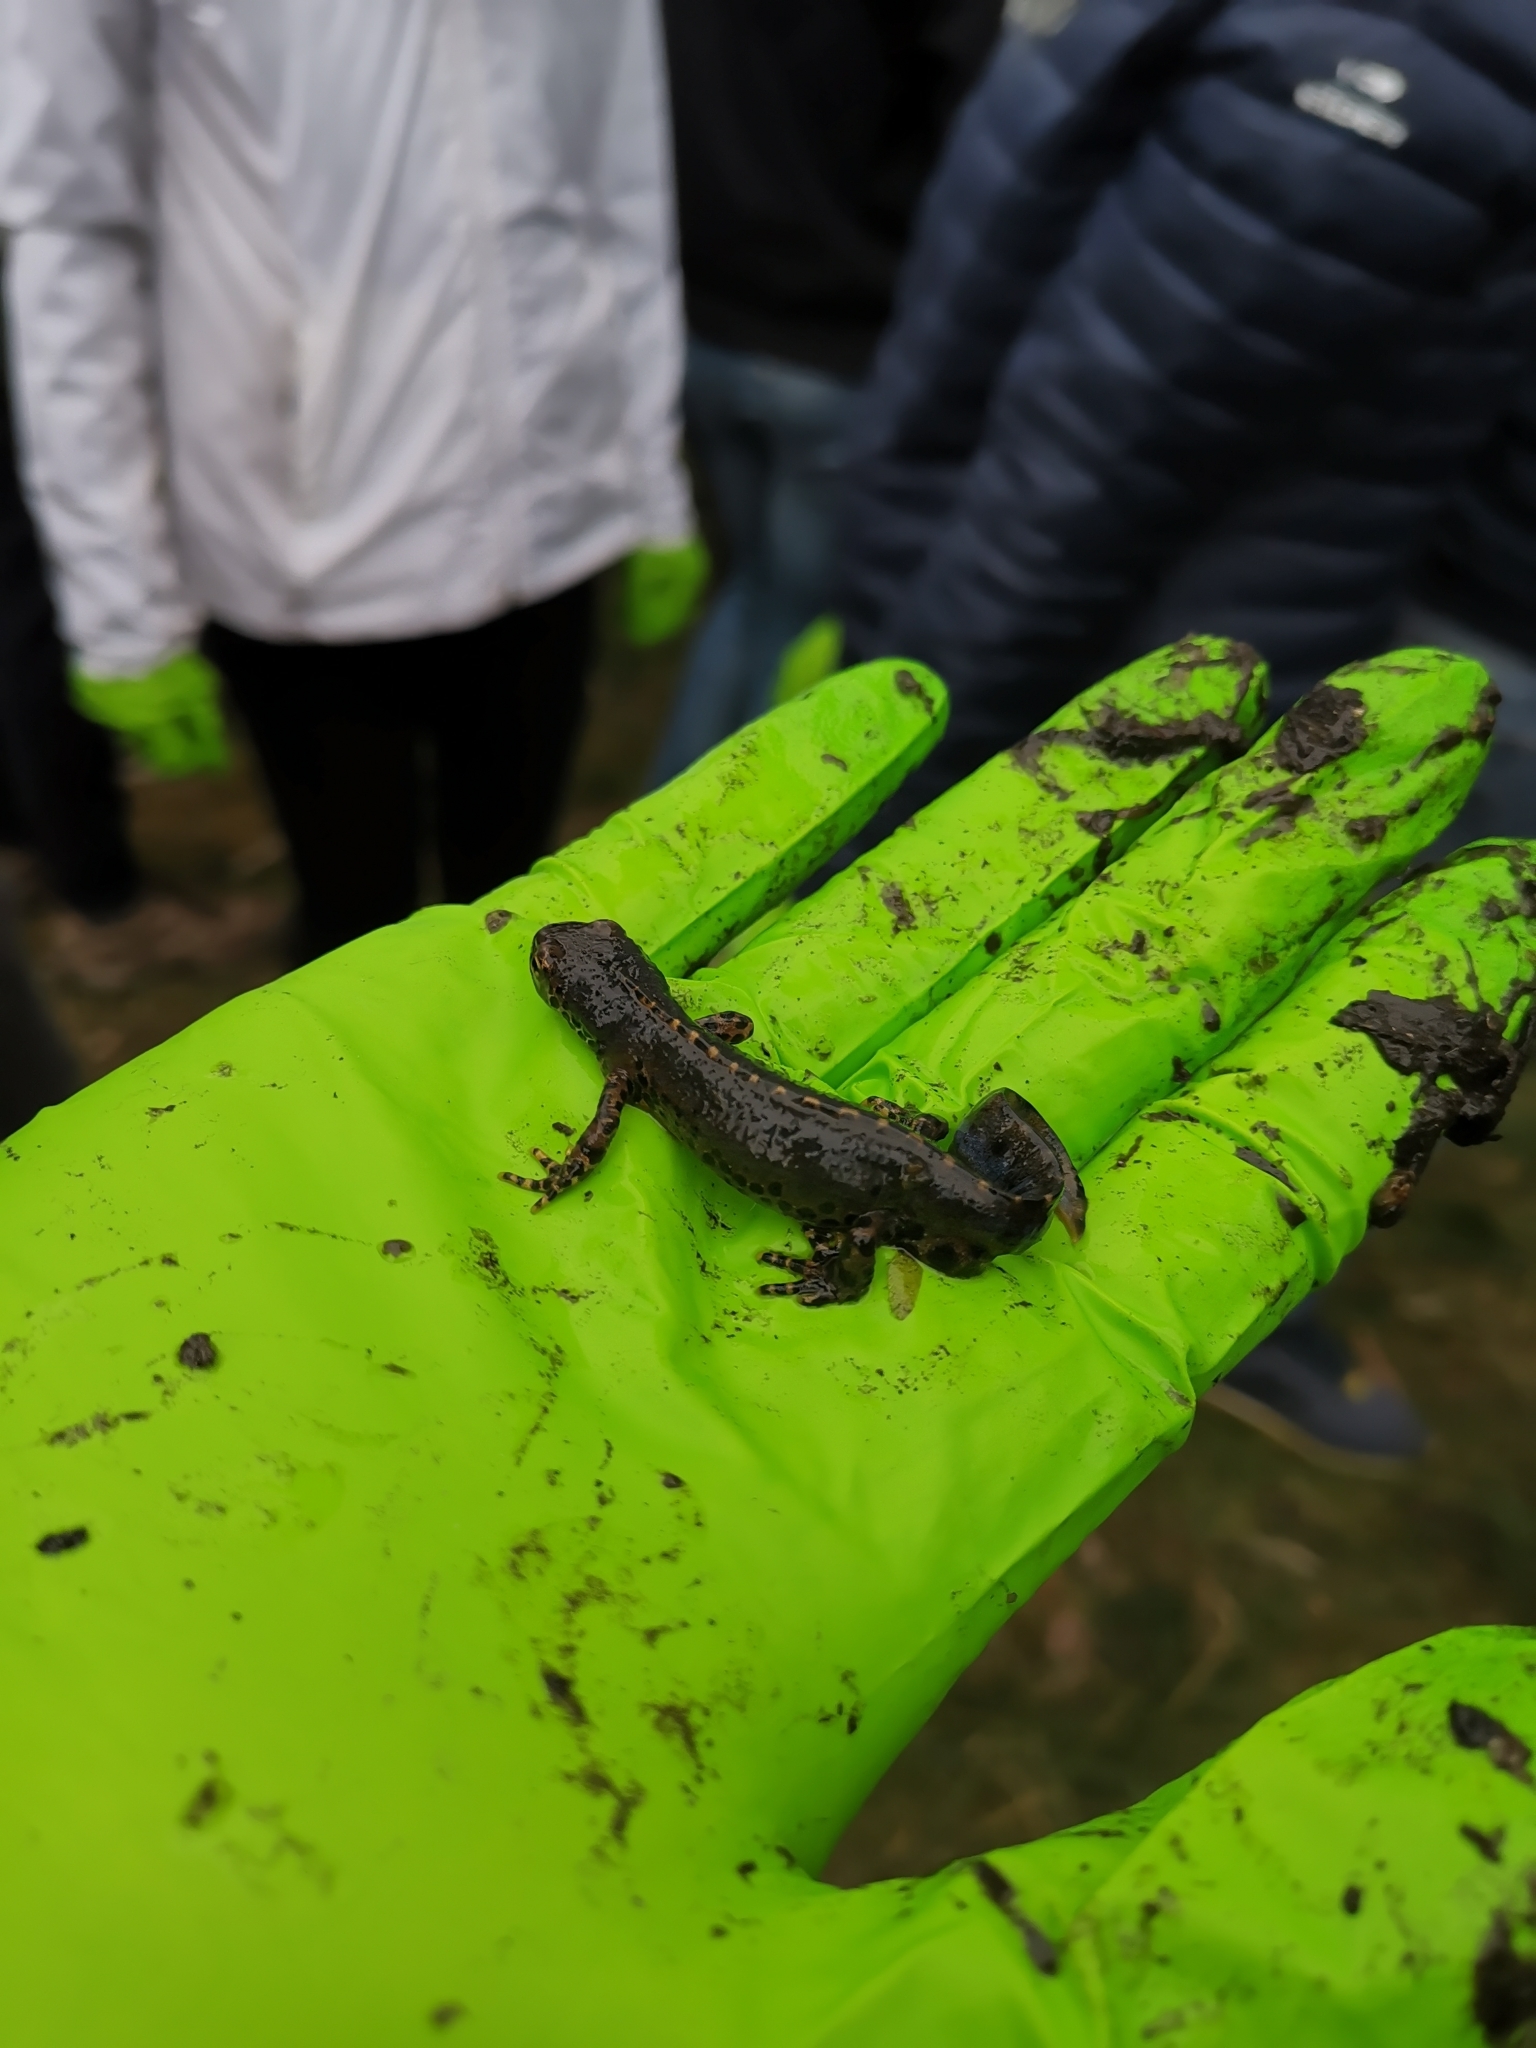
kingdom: Animalia
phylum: Chordata
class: Amphibia
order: Caudata
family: Salamandridae
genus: Ichthyosaura
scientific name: Ichthyosaura alpestris
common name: Alpine newt
